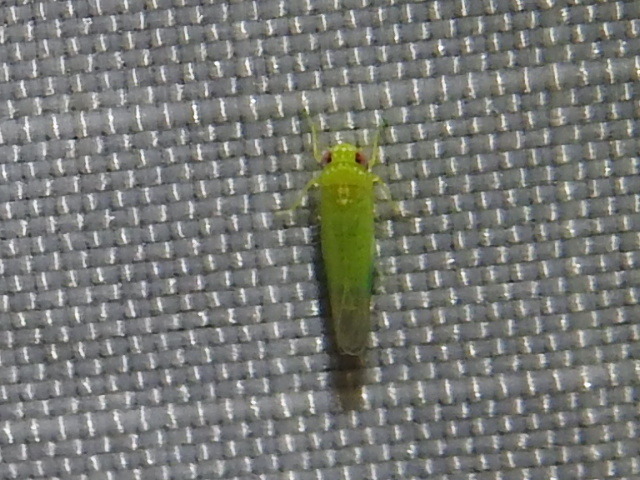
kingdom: Animalia
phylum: Arthropoda
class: Insecta
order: Hemiptera
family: Cicadellidae
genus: Empoasca
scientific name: Empoasca fabae
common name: Potato leafhopper
